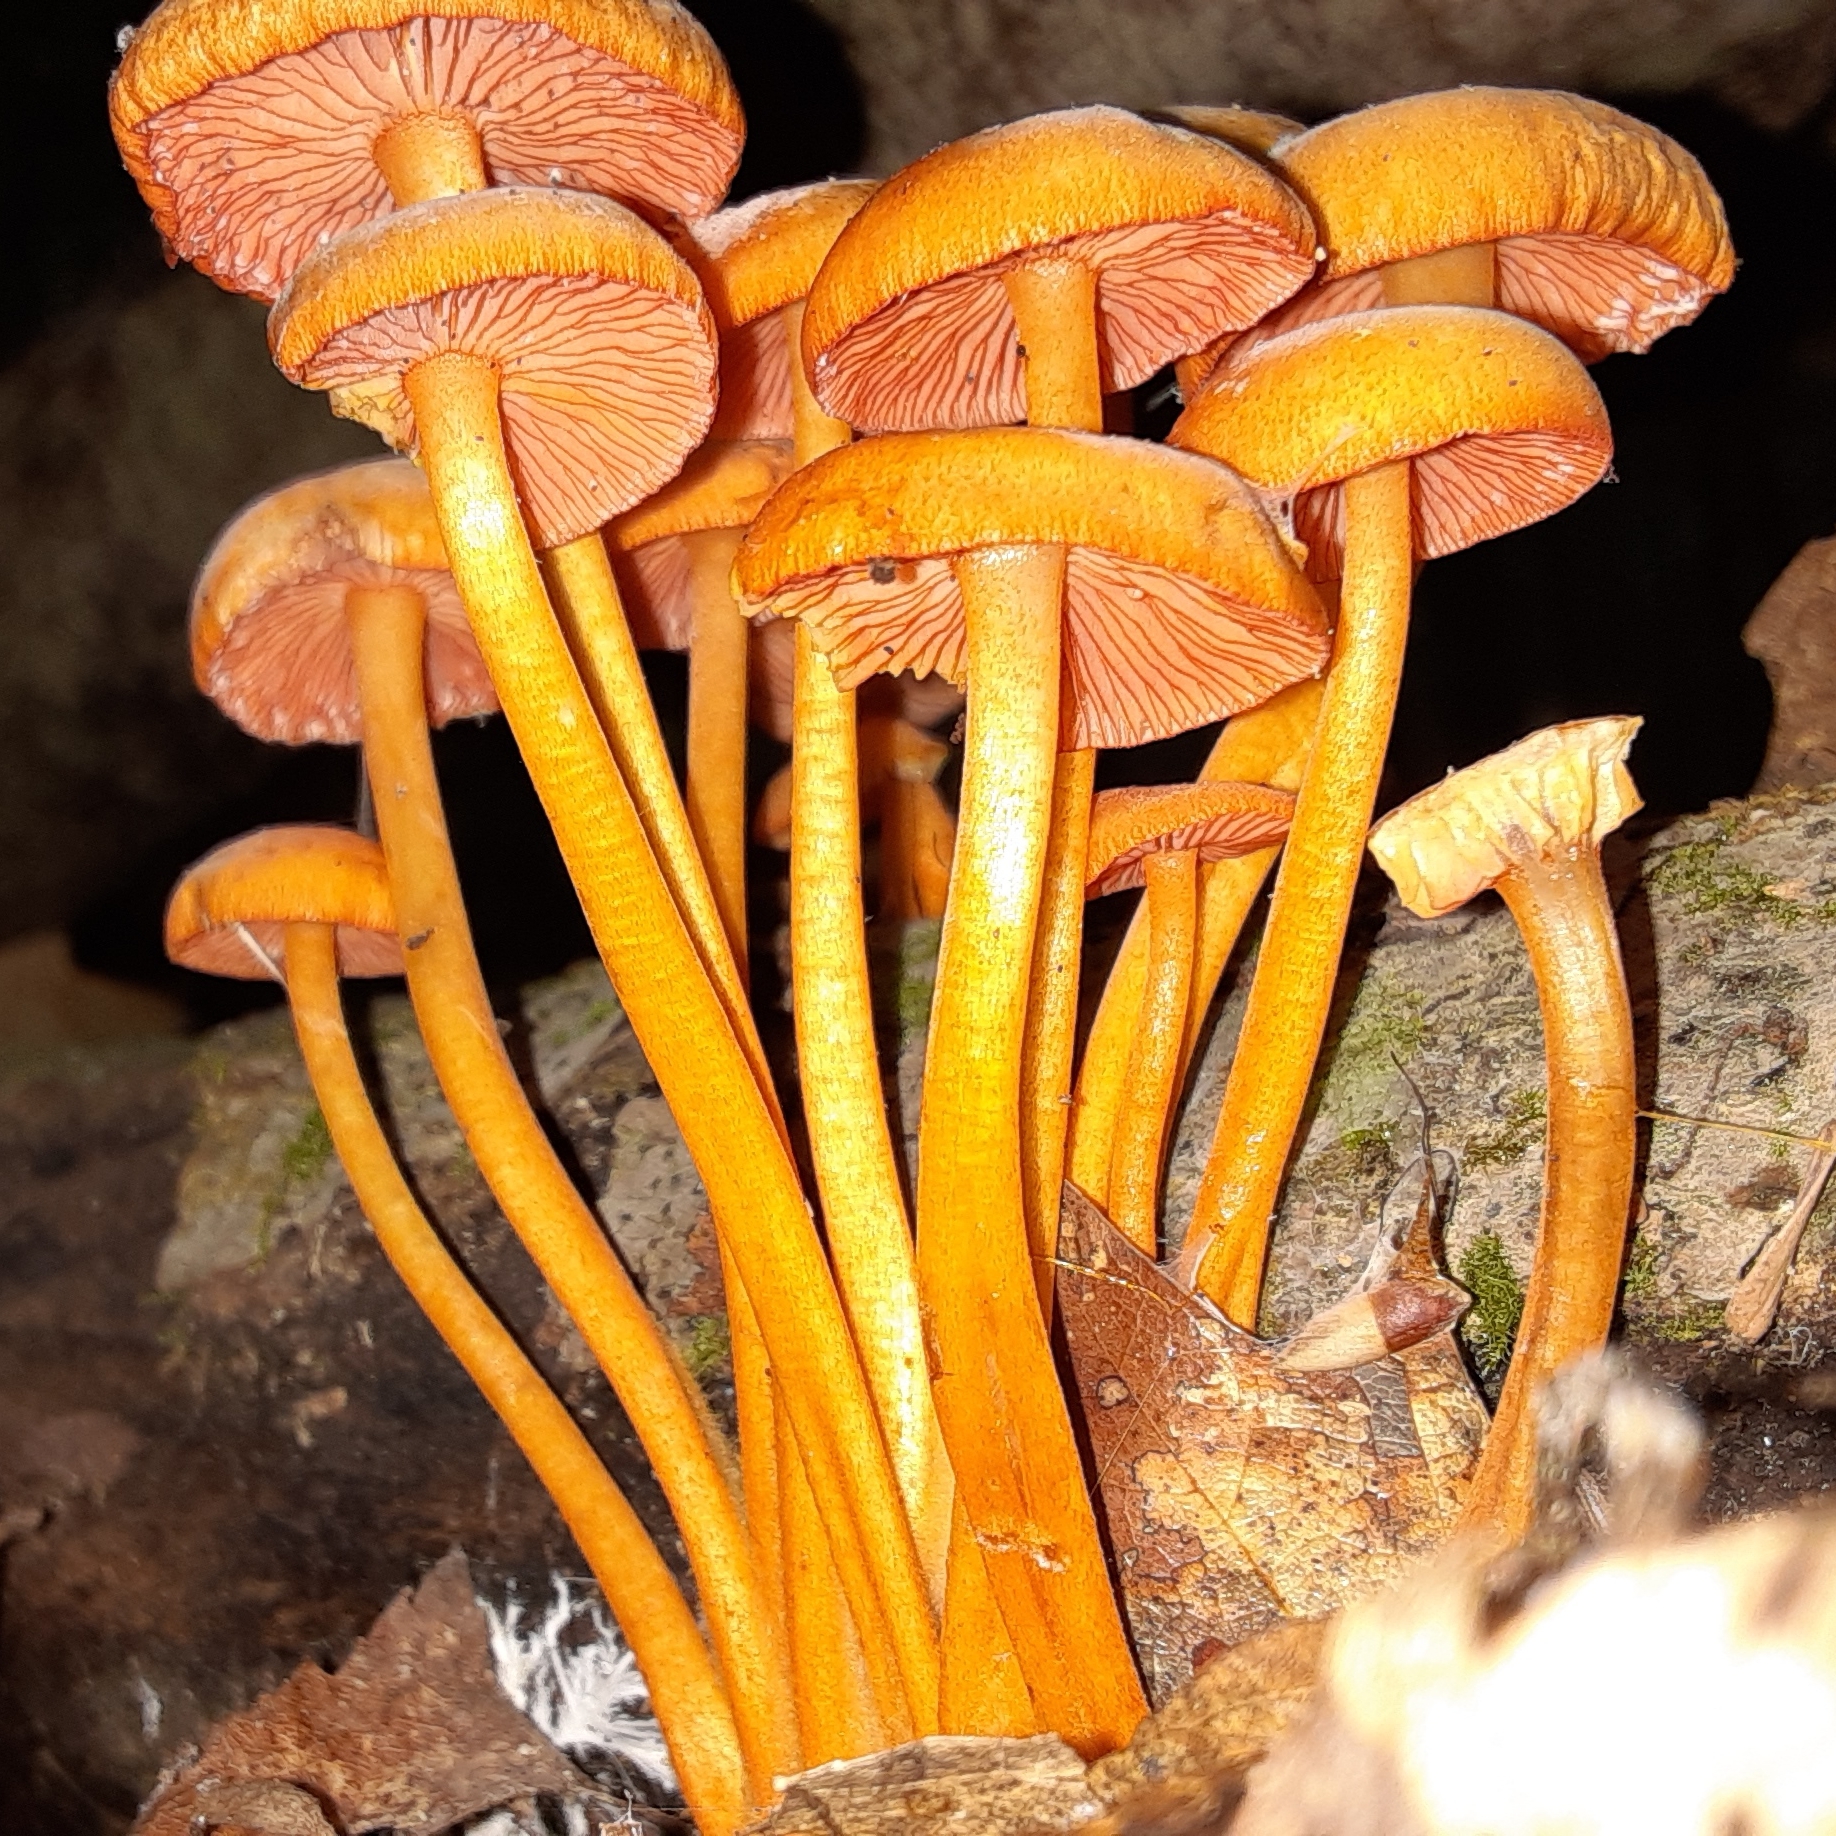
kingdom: Fungi
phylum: Basidiomycota
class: Agaricomycetes
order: Agaricales
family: Mycenaceae
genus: Mycena
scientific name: Mycena leaiana
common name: Orange mycena
